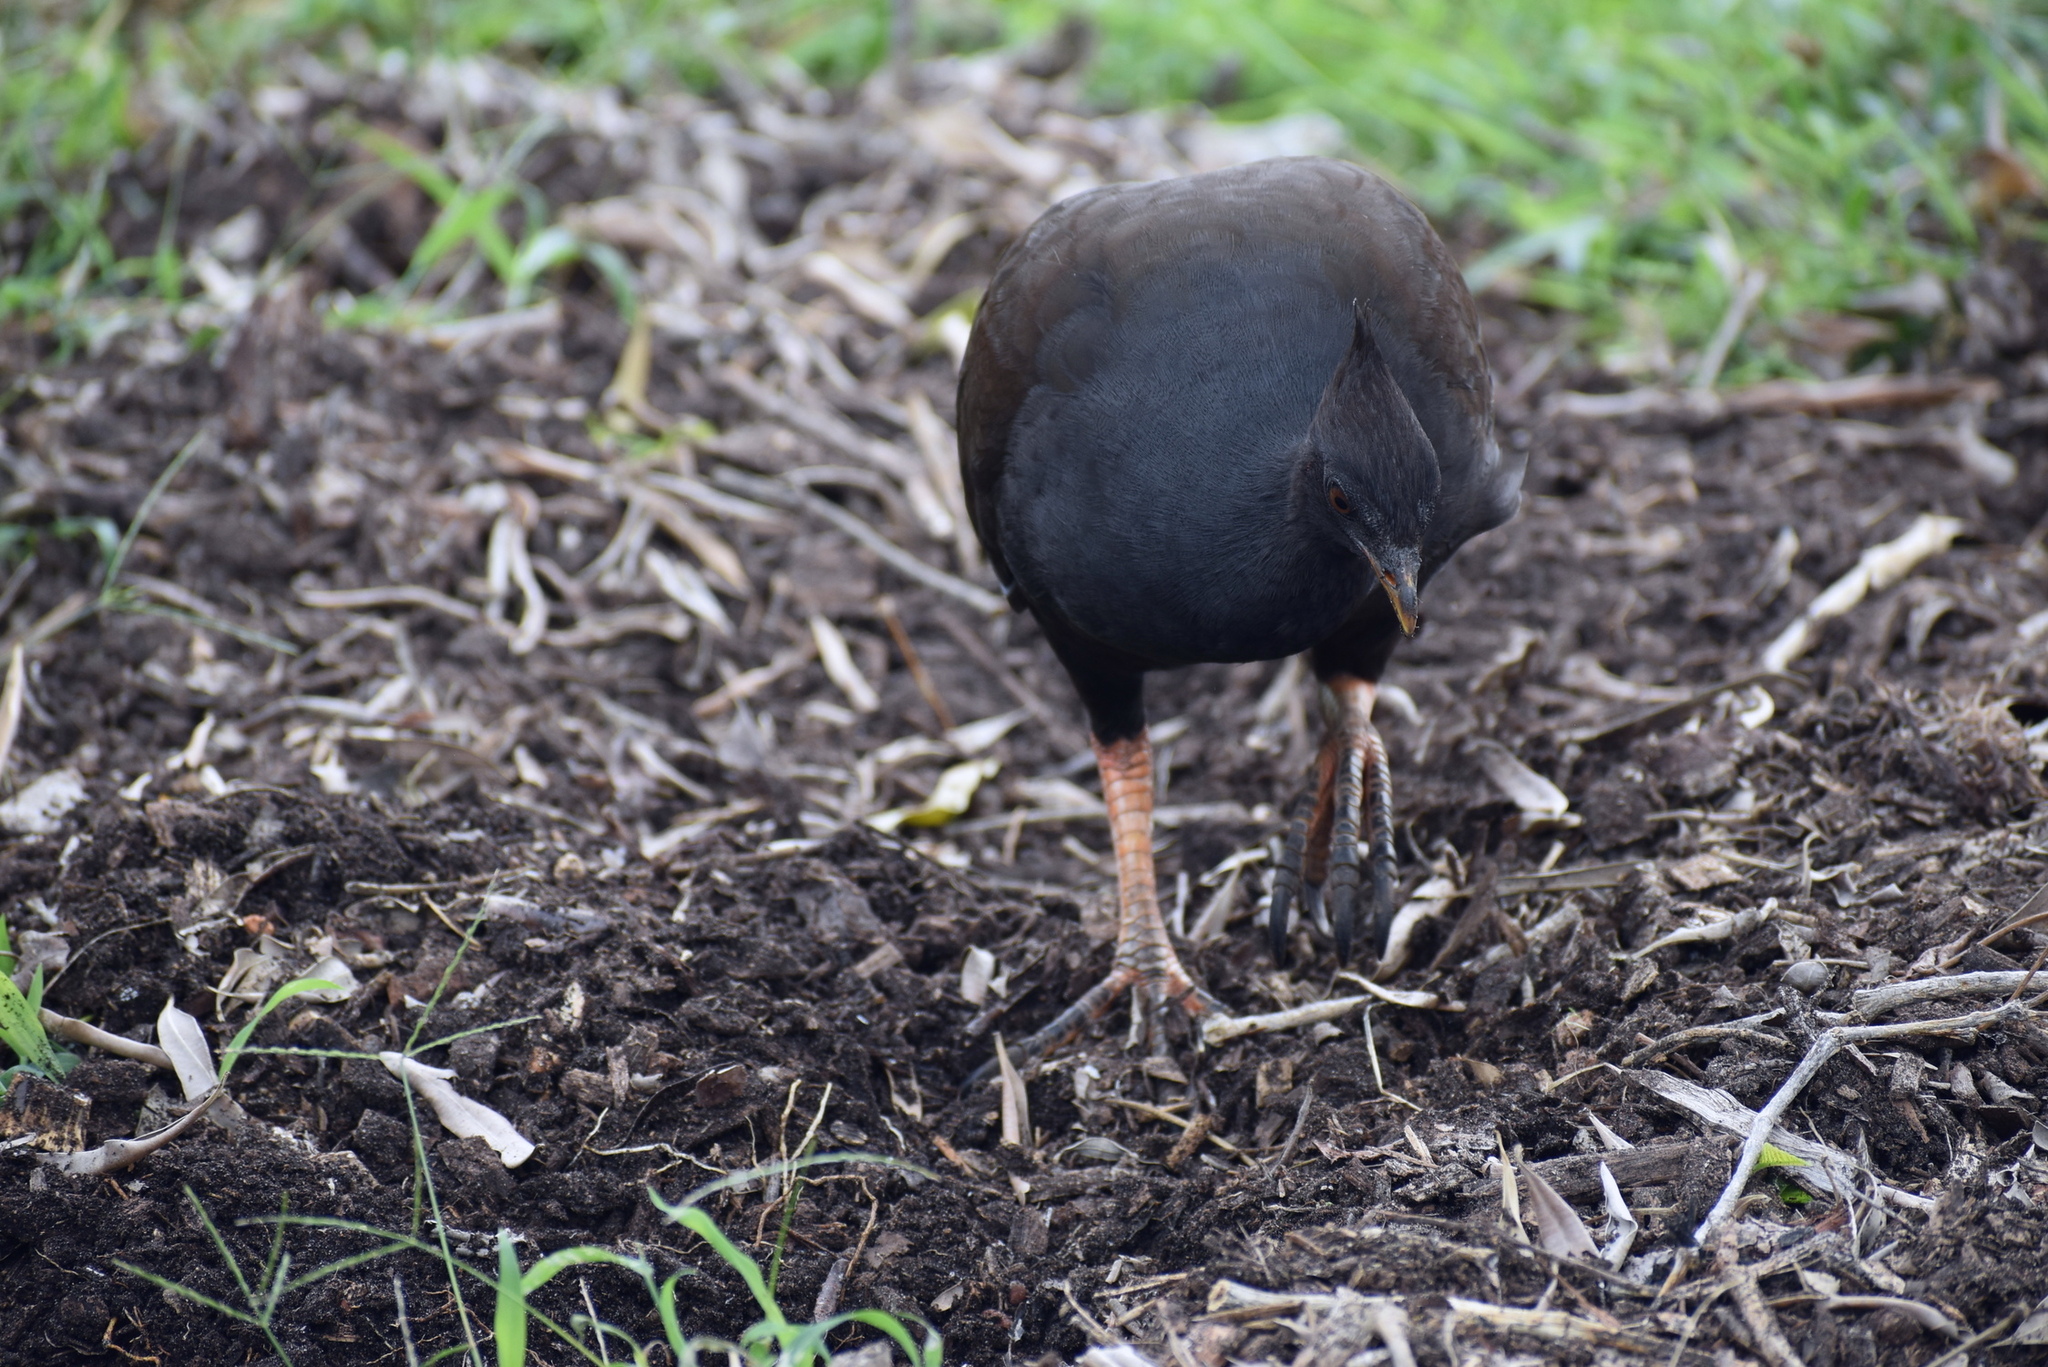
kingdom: Animalia
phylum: Chordata
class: Aves
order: Galliformes
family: Megapodiidae
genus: Megapodius
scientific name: Megapodius reinwardt
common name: Orange-footed scrubfowl
